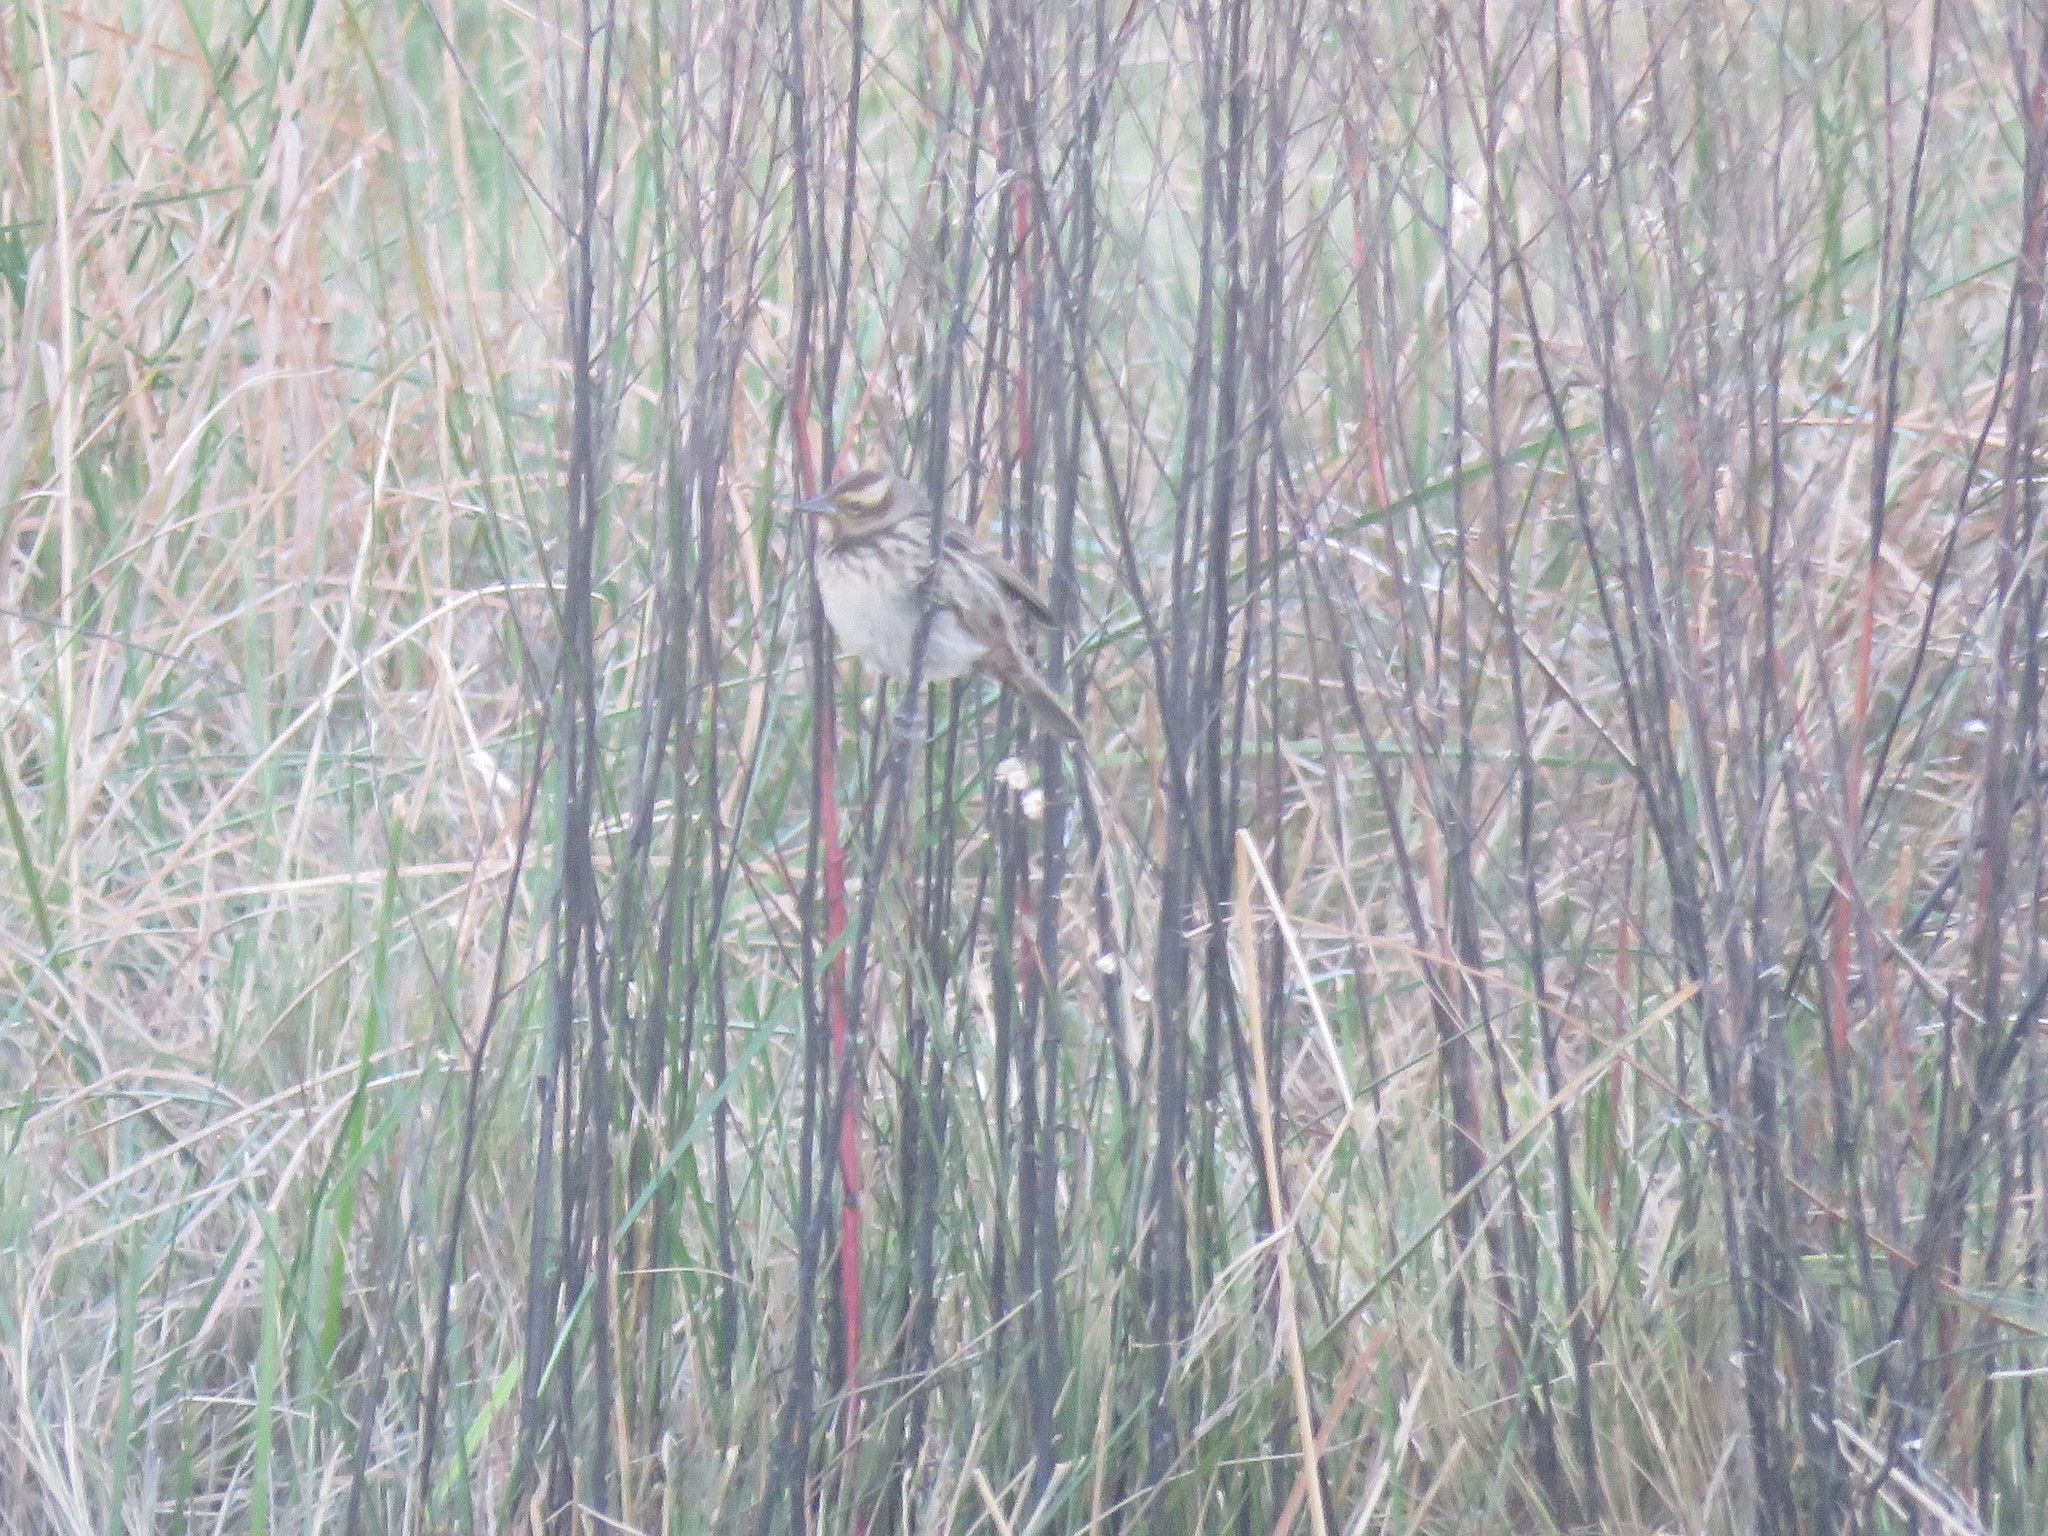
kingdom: Animalia
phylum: Chordata
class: Aves
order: Passeriformes
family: Icteridae
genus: Agelasticus
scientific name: Agelasticus thilius
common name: Yellow-winged blackbird
